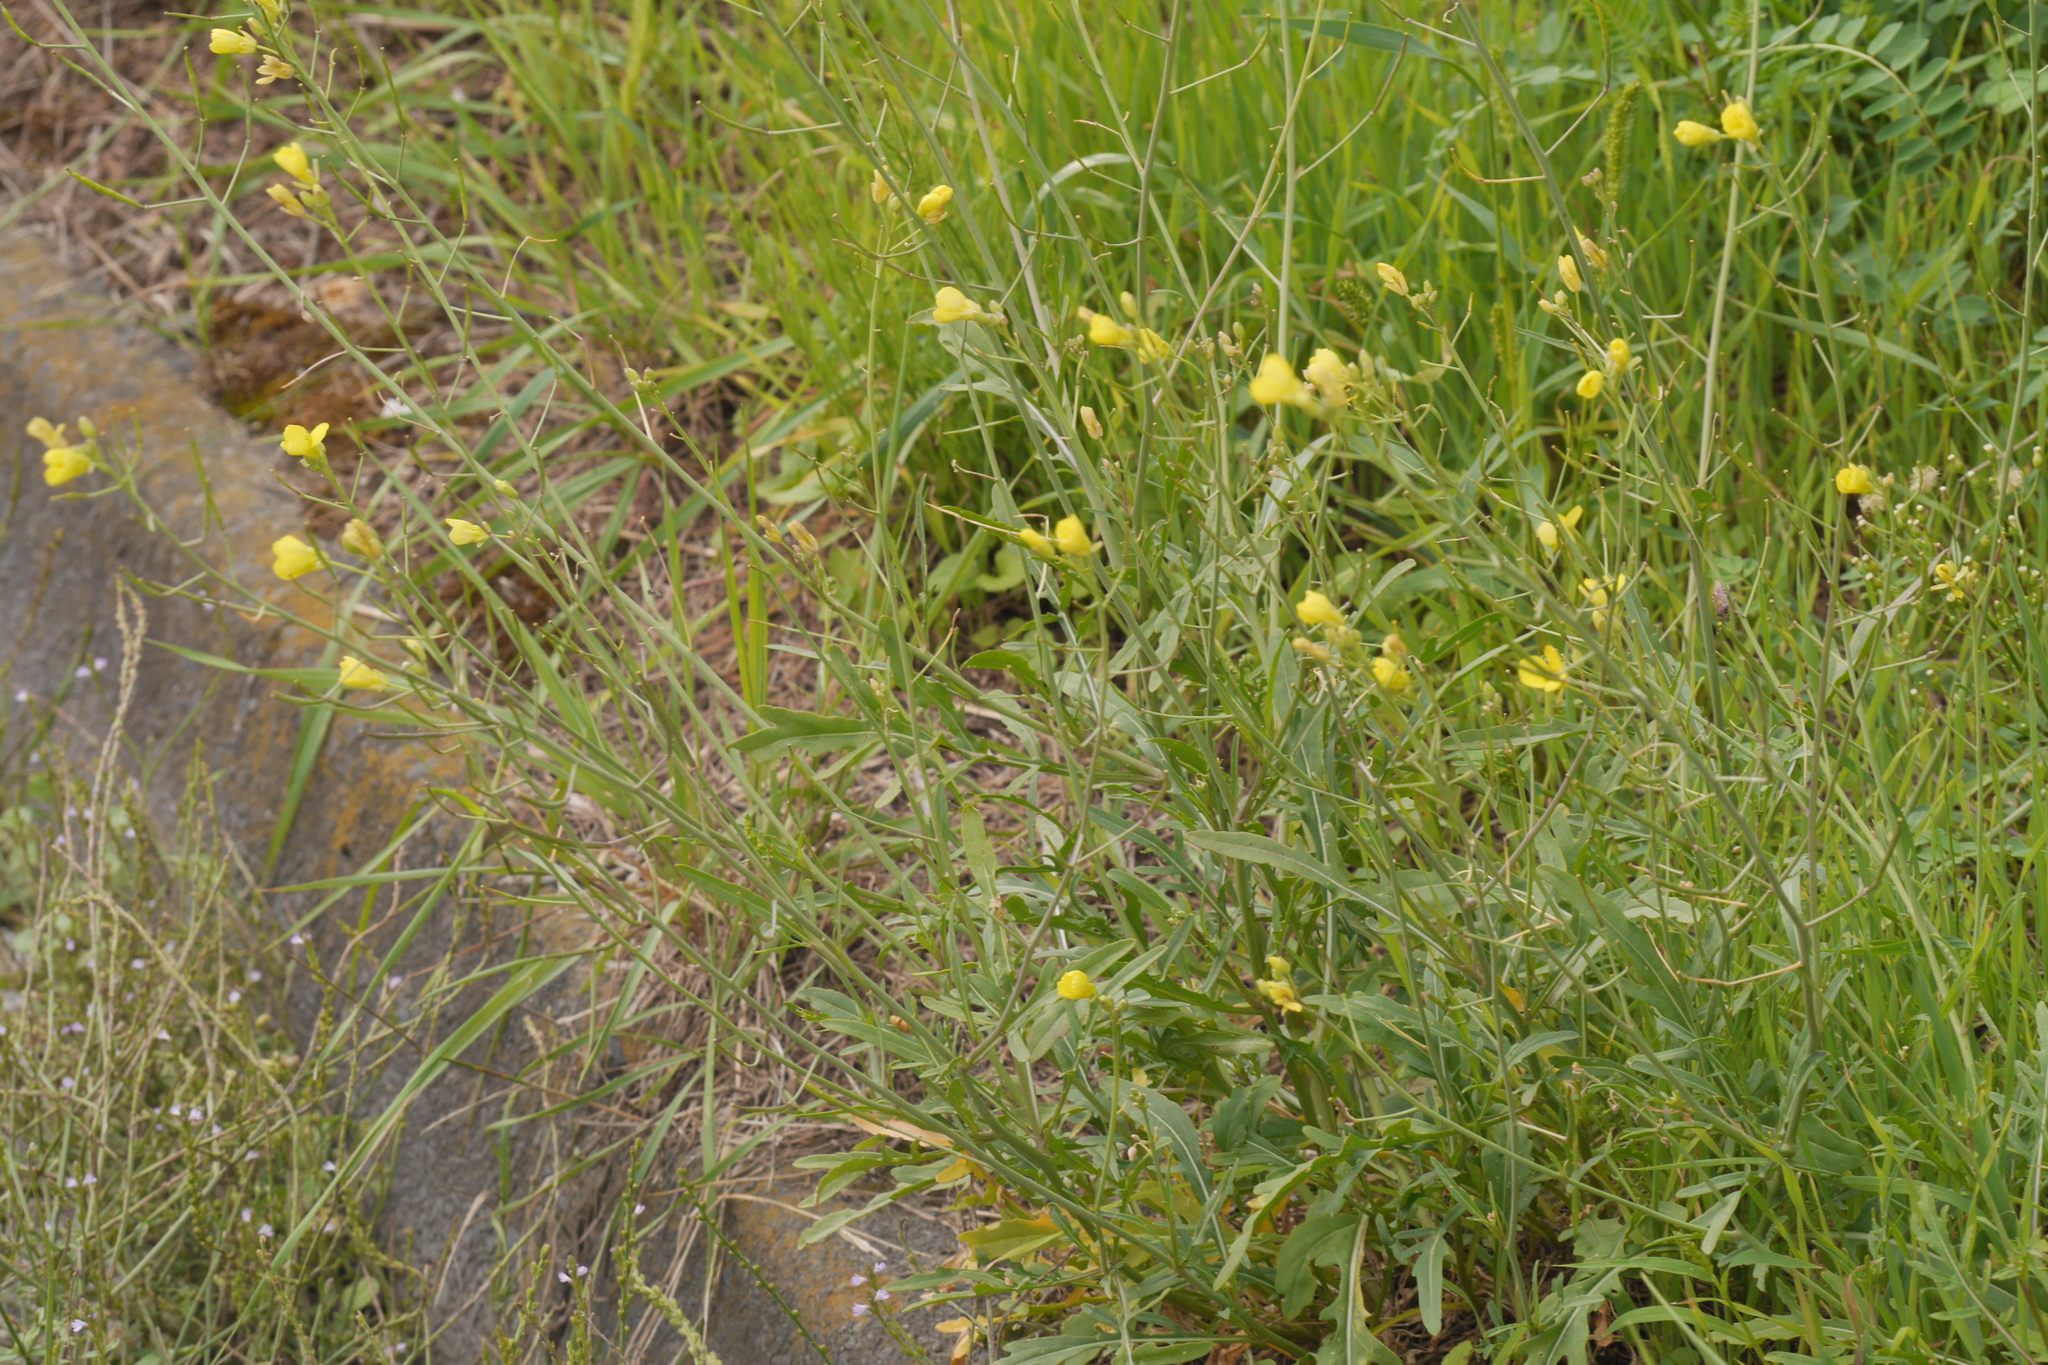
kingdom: Plantae
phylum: Tracheophyta
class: Magnoliopsida
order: Brassicales
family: Brassicaceae
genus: Diplotaxis
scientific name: Diplotaxis tenuifolia
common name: Perennial wall-rocket
